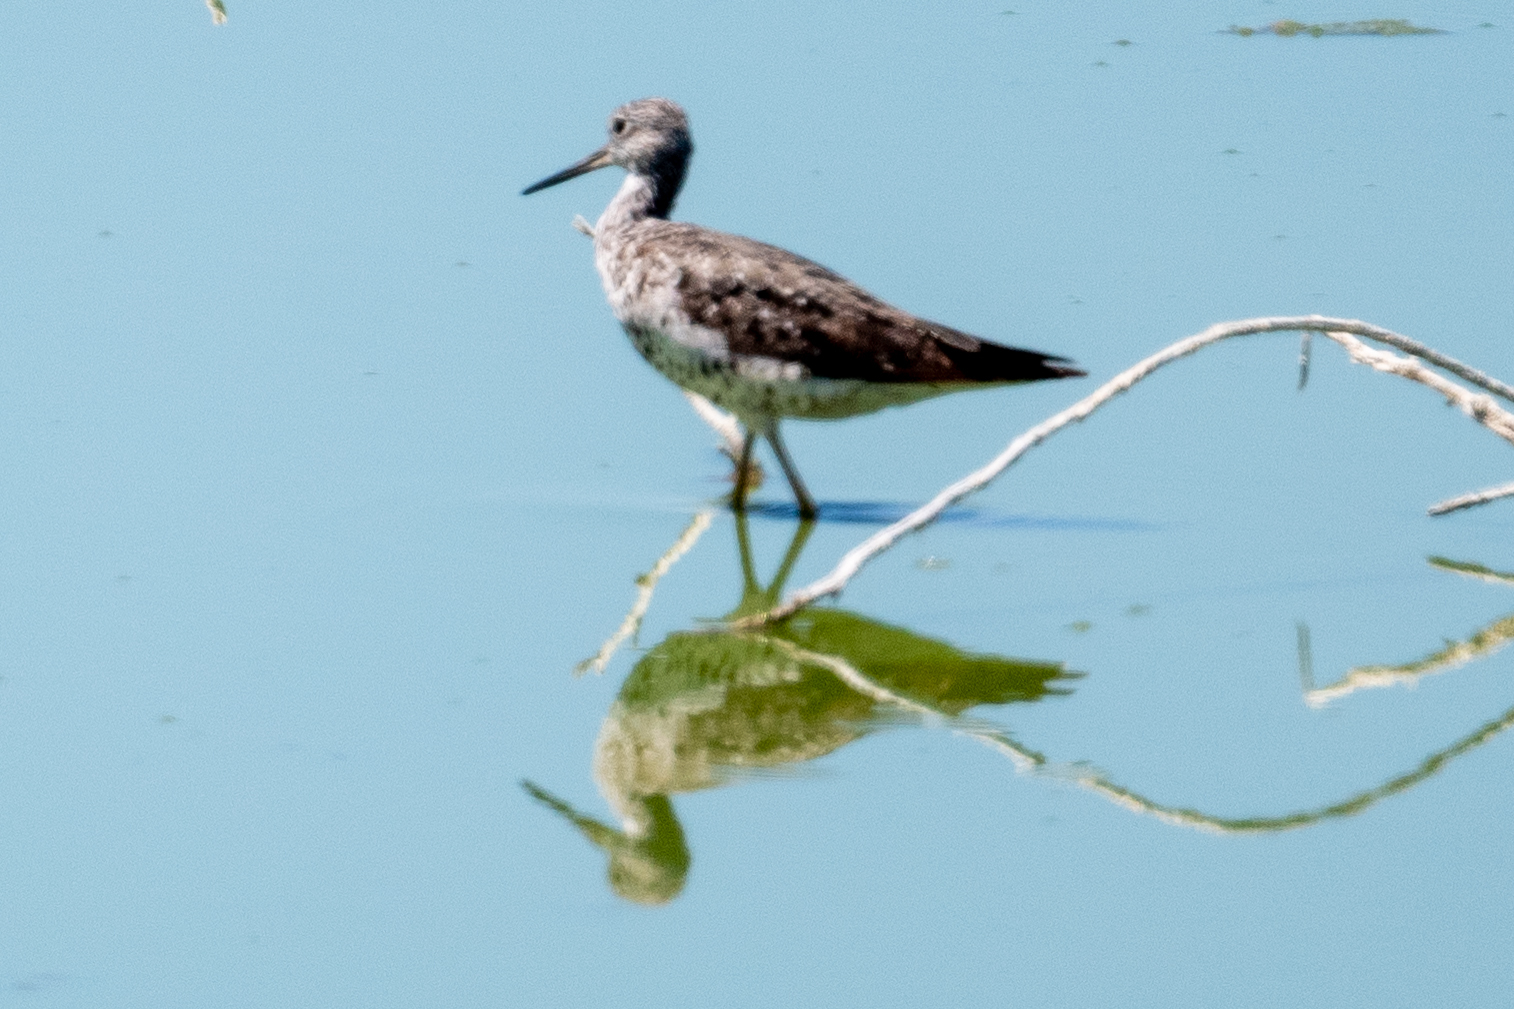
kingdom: Animalia
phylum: Chordata
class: Aves
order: Charadriiformes
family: Scolopacidae
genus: Tringa
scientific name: Tringa melanoleuca
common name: Greater yellowlegs
